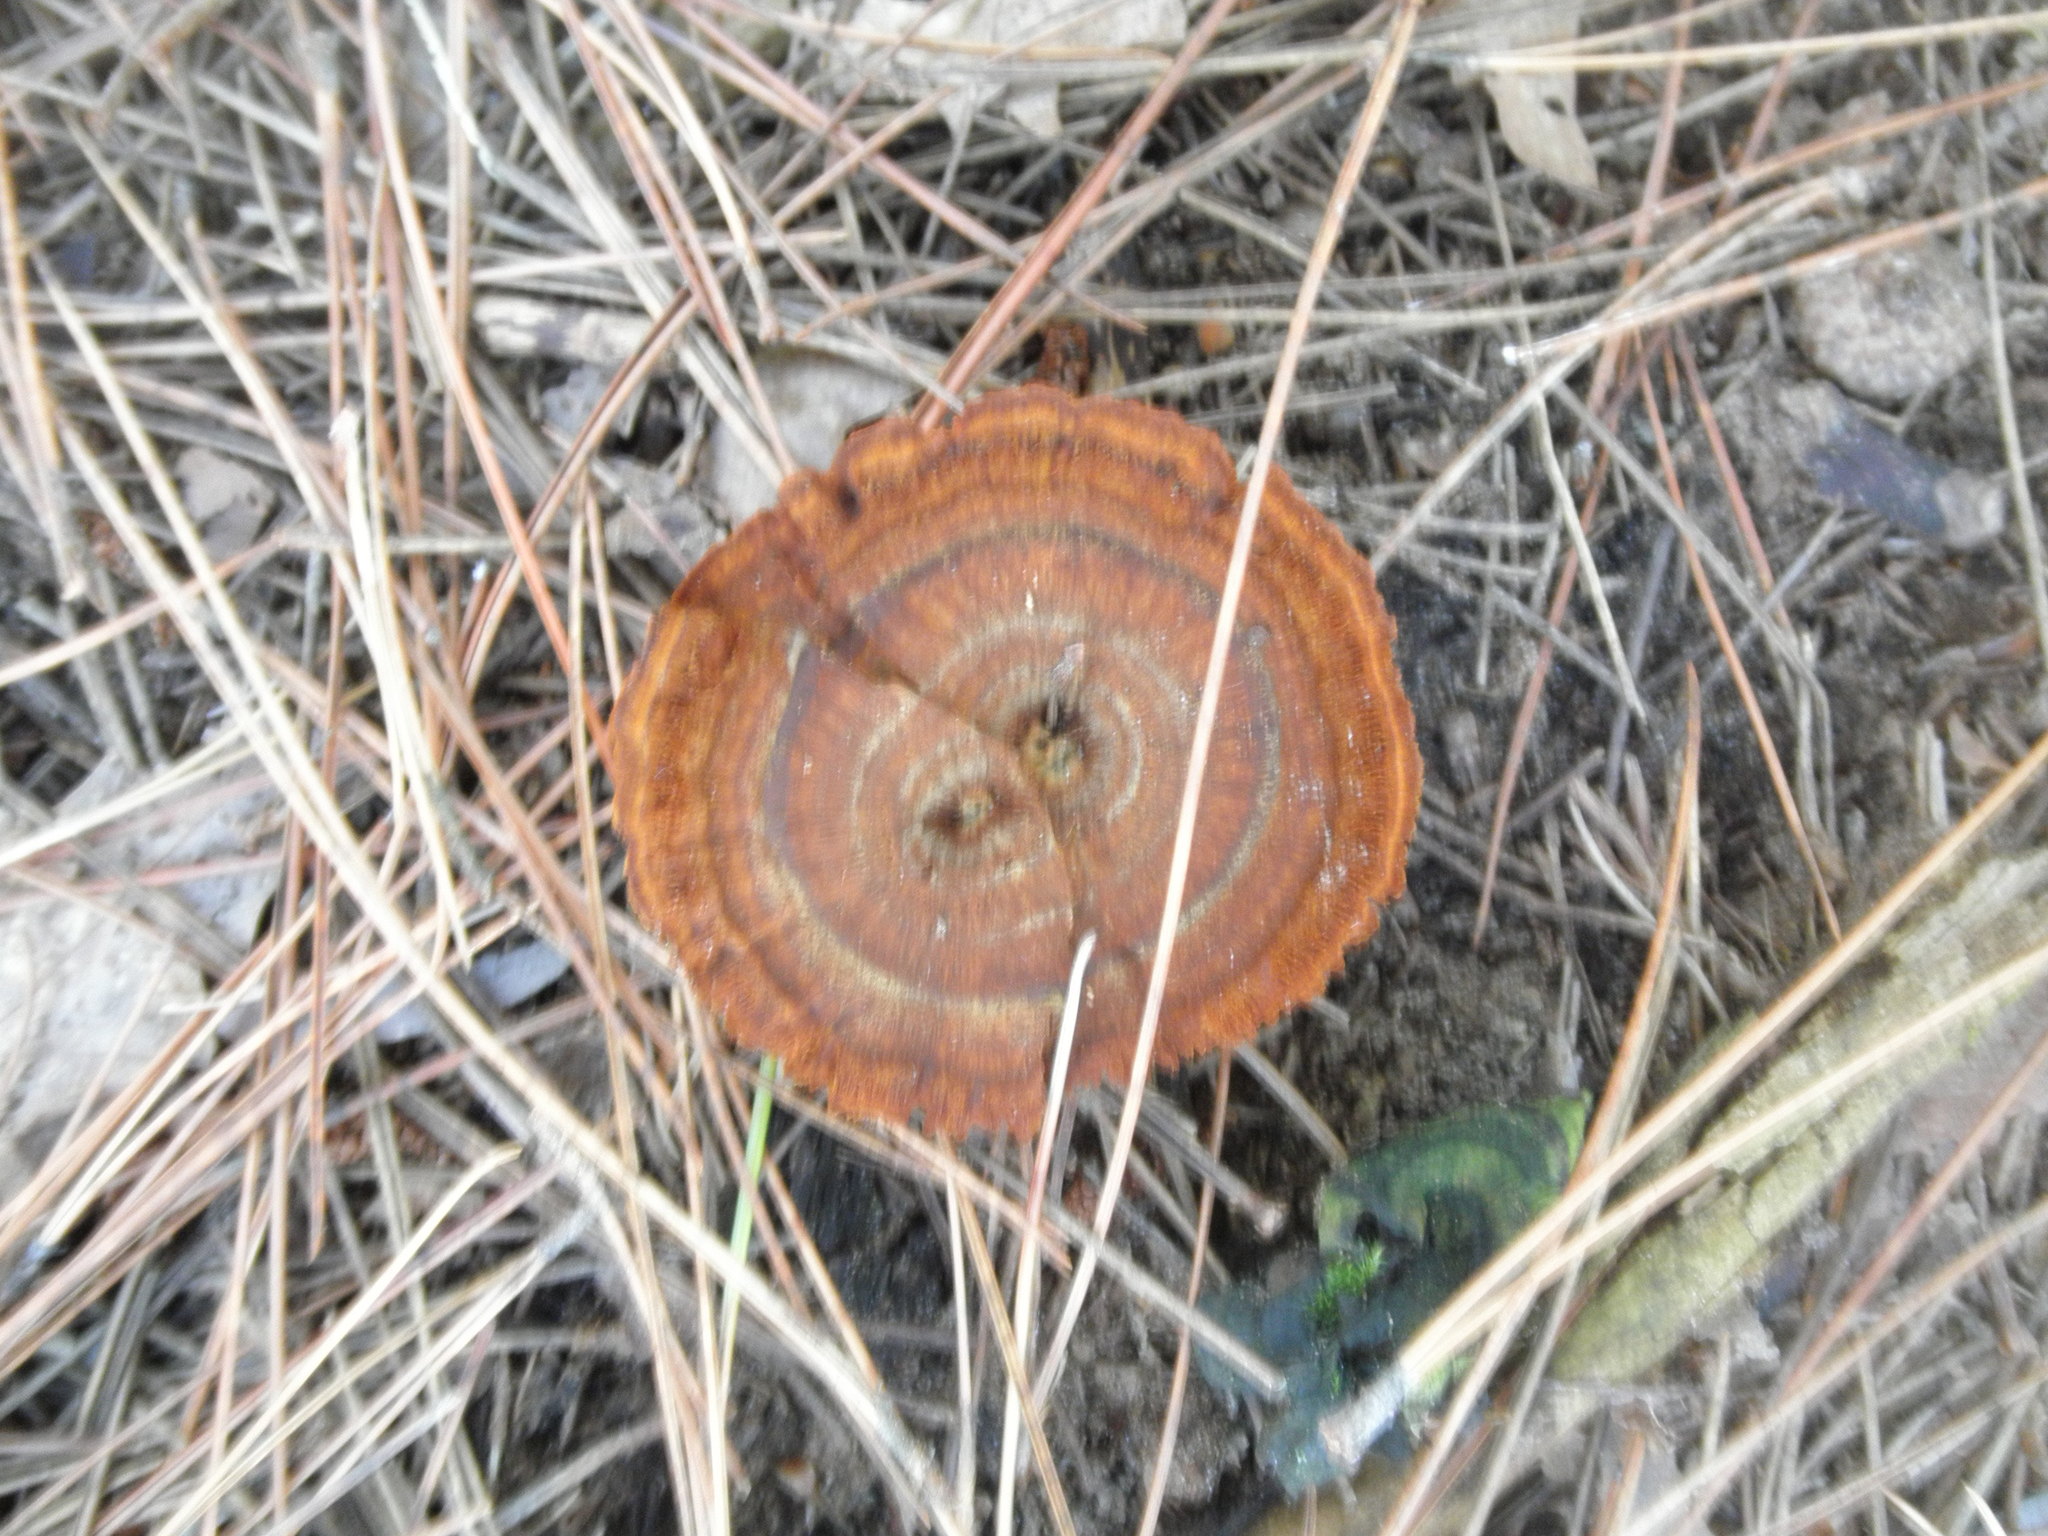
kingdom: Fungi
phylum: Basidiomycota
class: Agaricomycetes
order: Hymenochaetales
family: Hymenochaetaceae
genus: Coltricia
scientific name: Coltricia cinnamomea
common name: Shiny cinnamon polypore
